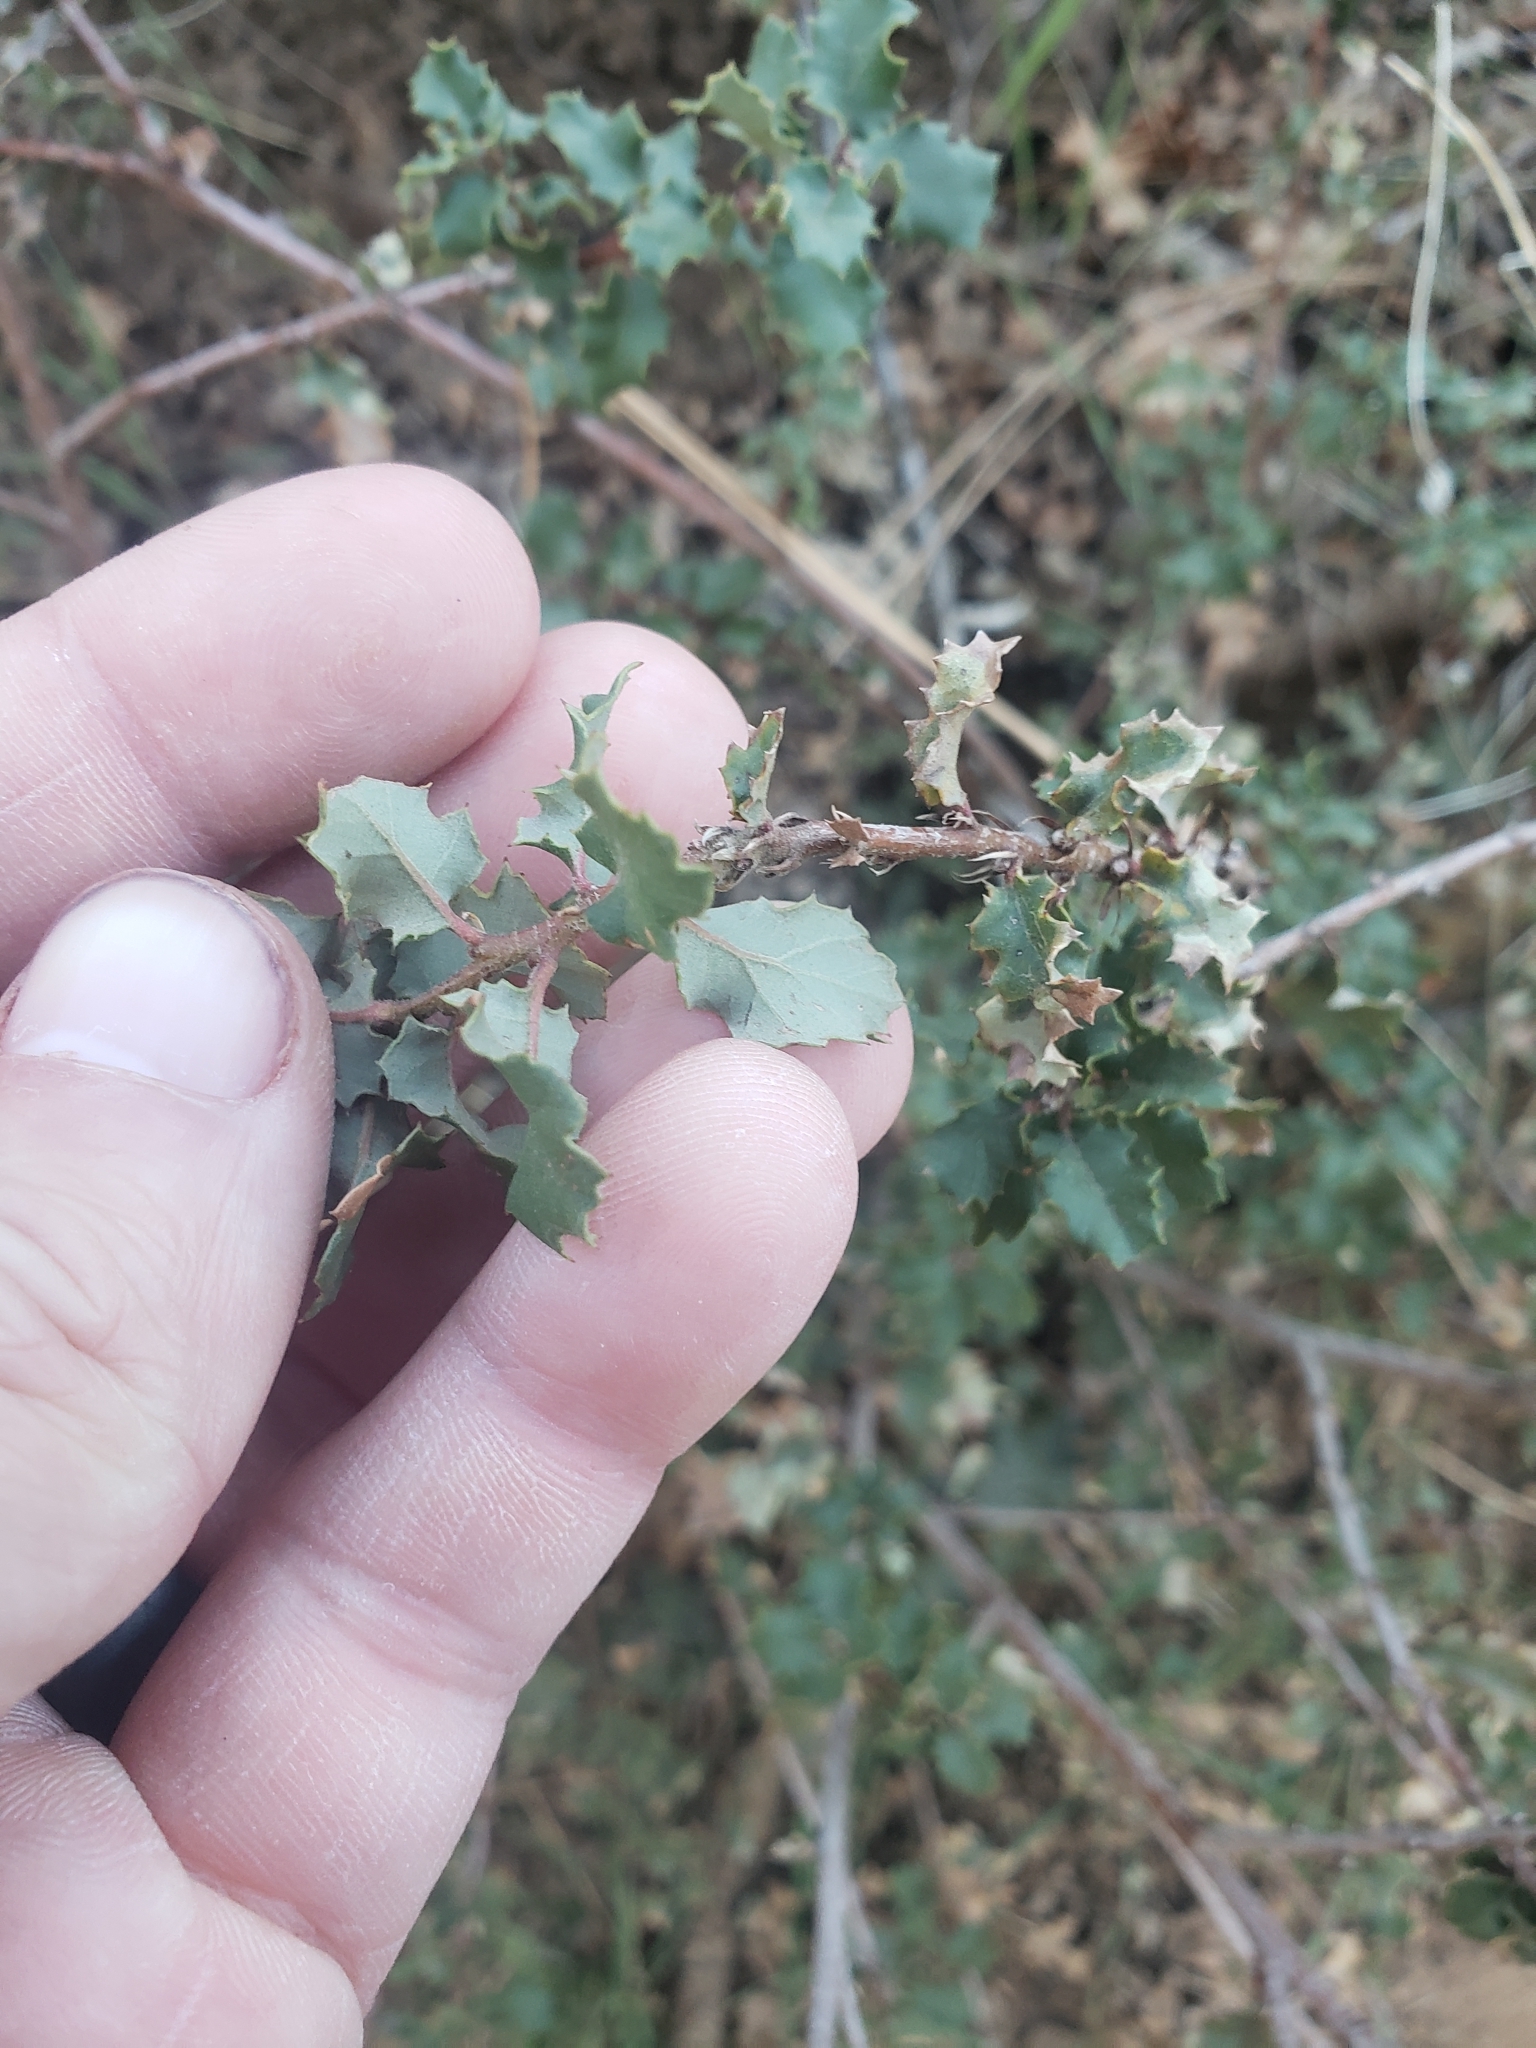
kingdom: Plantae
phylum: Tracheophyta
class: Magnoliopsida
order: Fagales
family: Fagaceae
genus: Quercus
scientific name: Quercus john-tuckeri
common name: Tucker's oak
